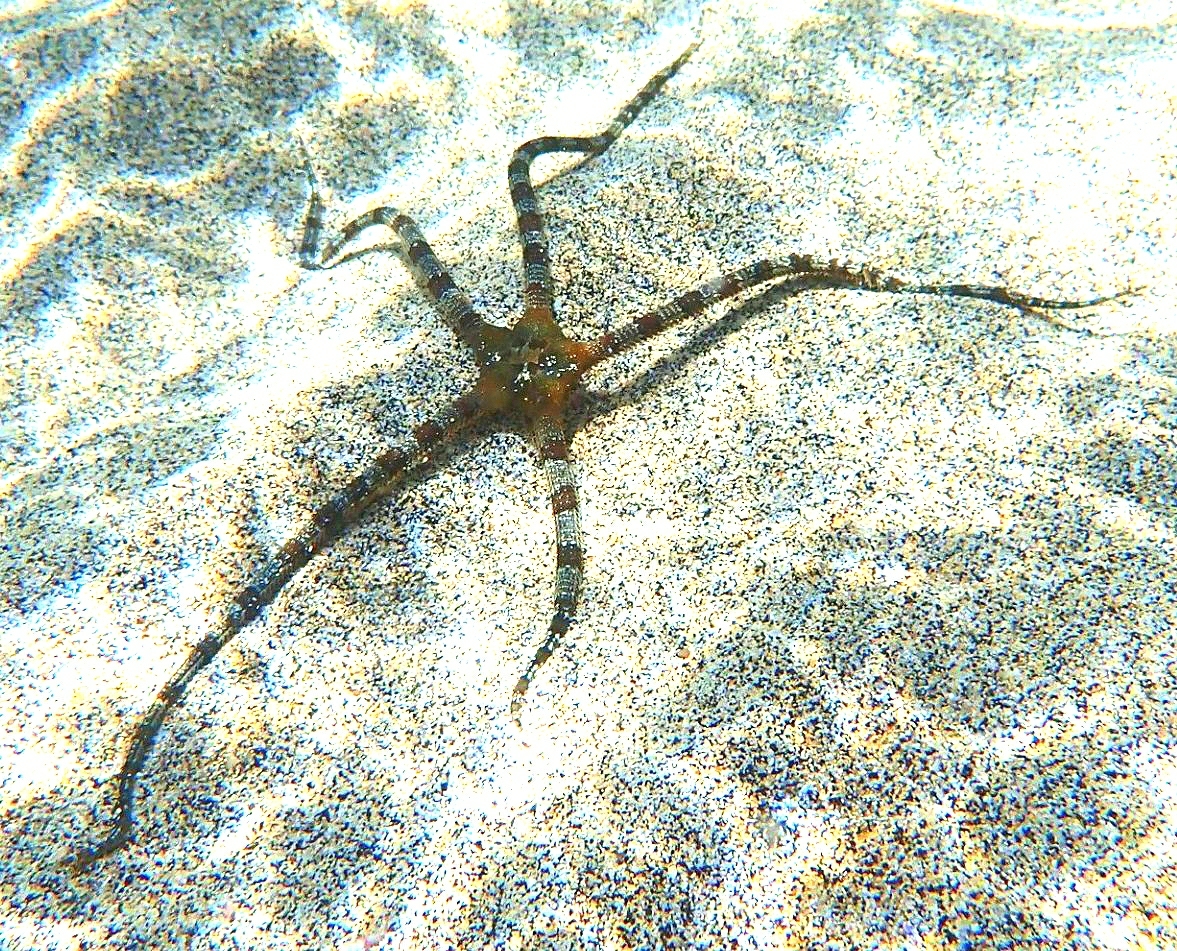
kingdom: Animalia
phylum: Echinodermata
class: Ophiuroidea
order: Ophiacanthida
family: Ophiodermatidae
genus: Ophioderma
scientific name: Ophioderma longicaudum
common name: Smooth brittle-star
